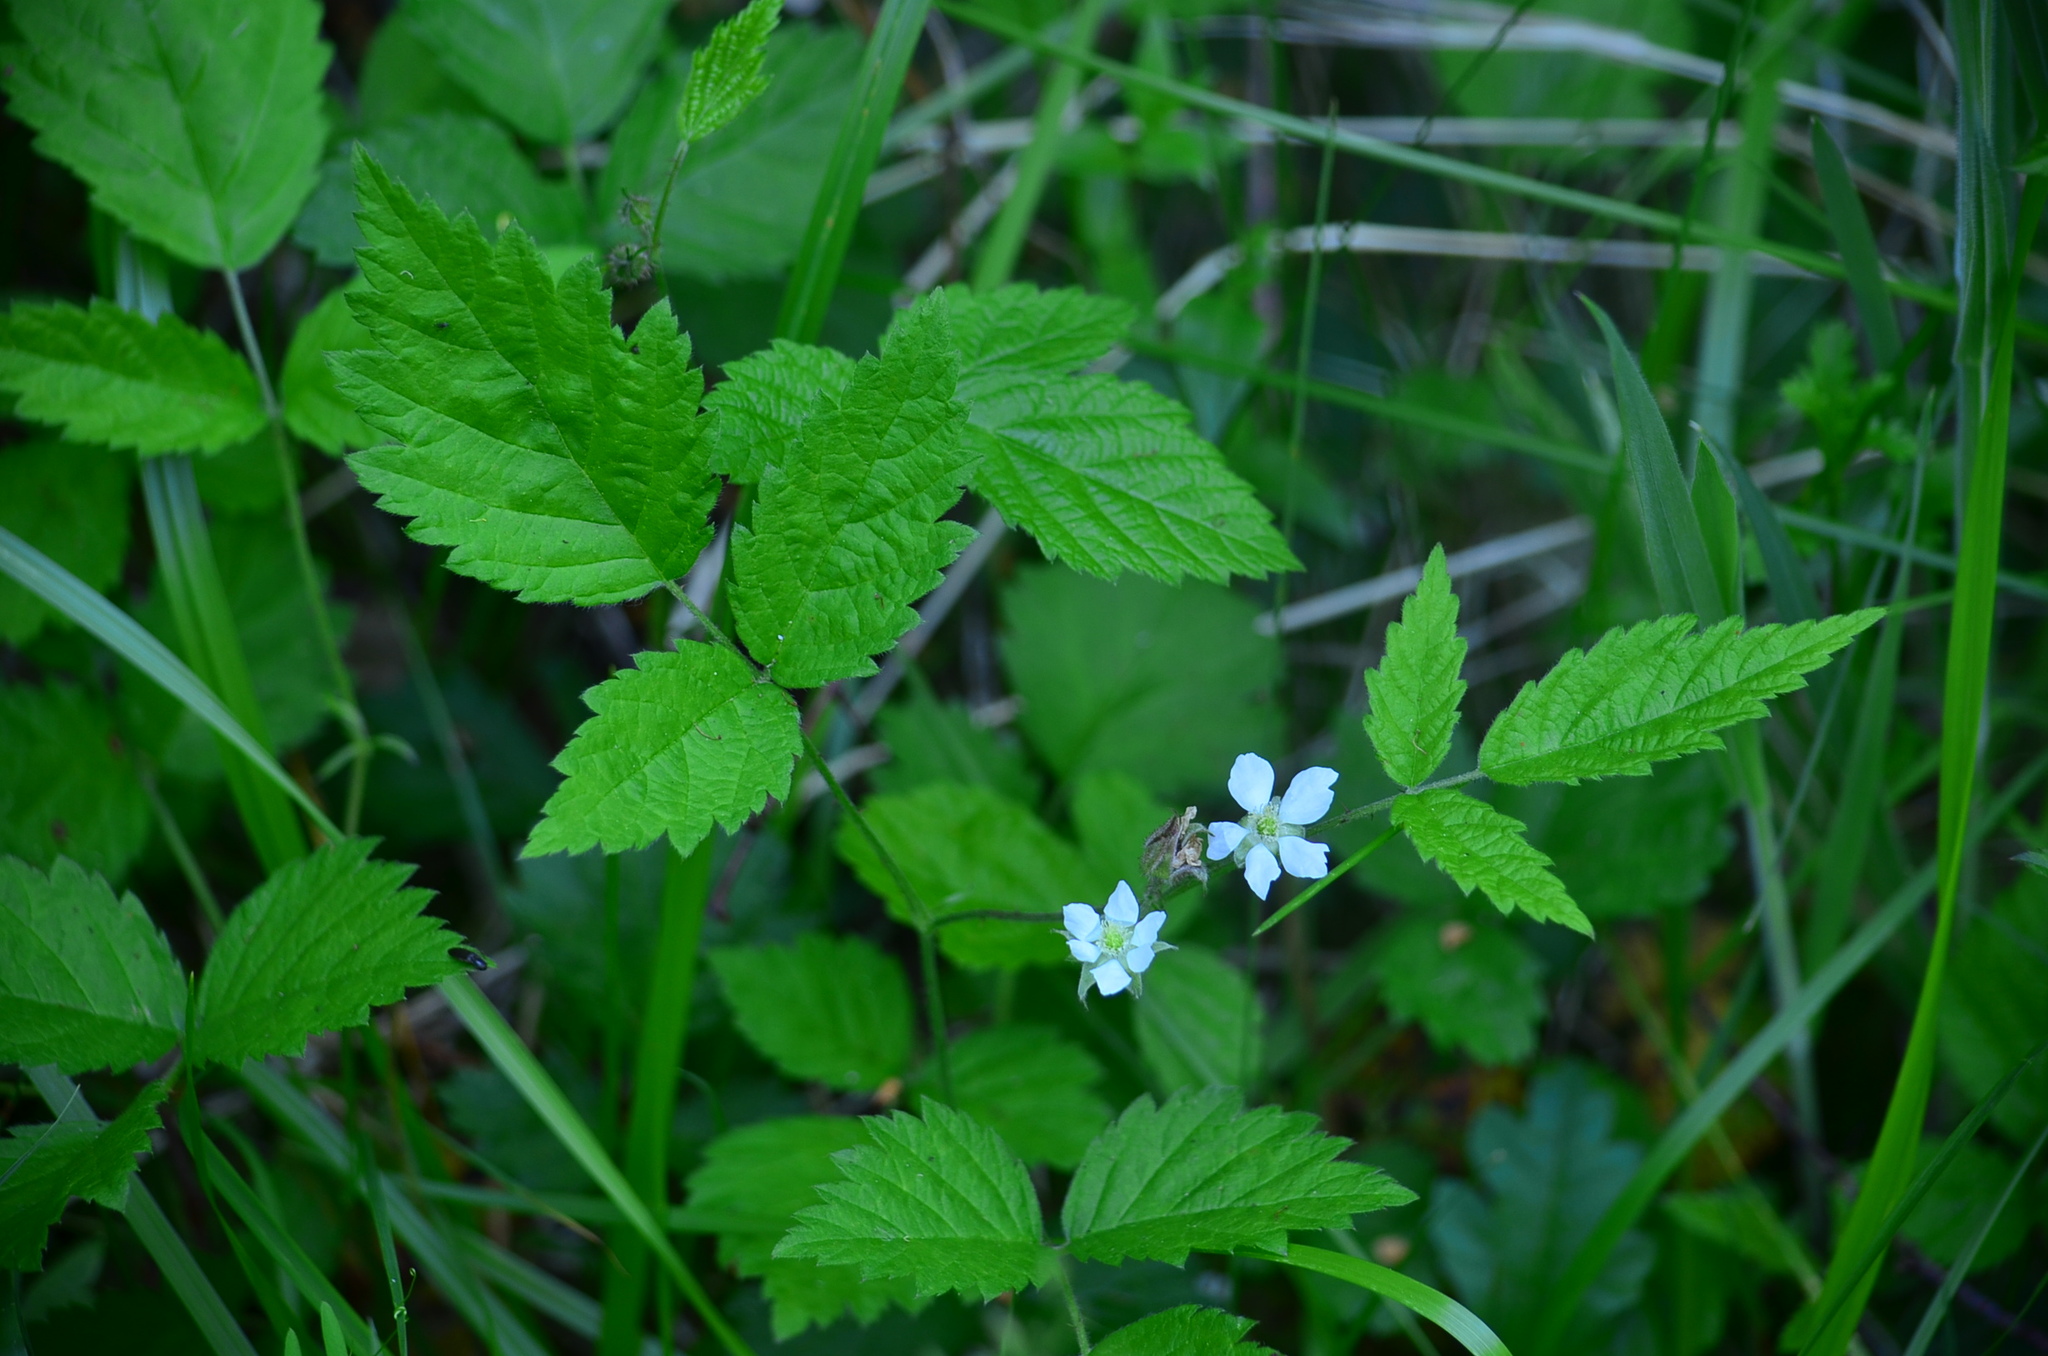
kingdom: Plantae
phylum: Tracheophyta
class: Magnoliopsida
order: Rosales
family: Rosaceae
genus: Rubus
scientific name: Rubus ursinus
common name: Pacific blackberry
